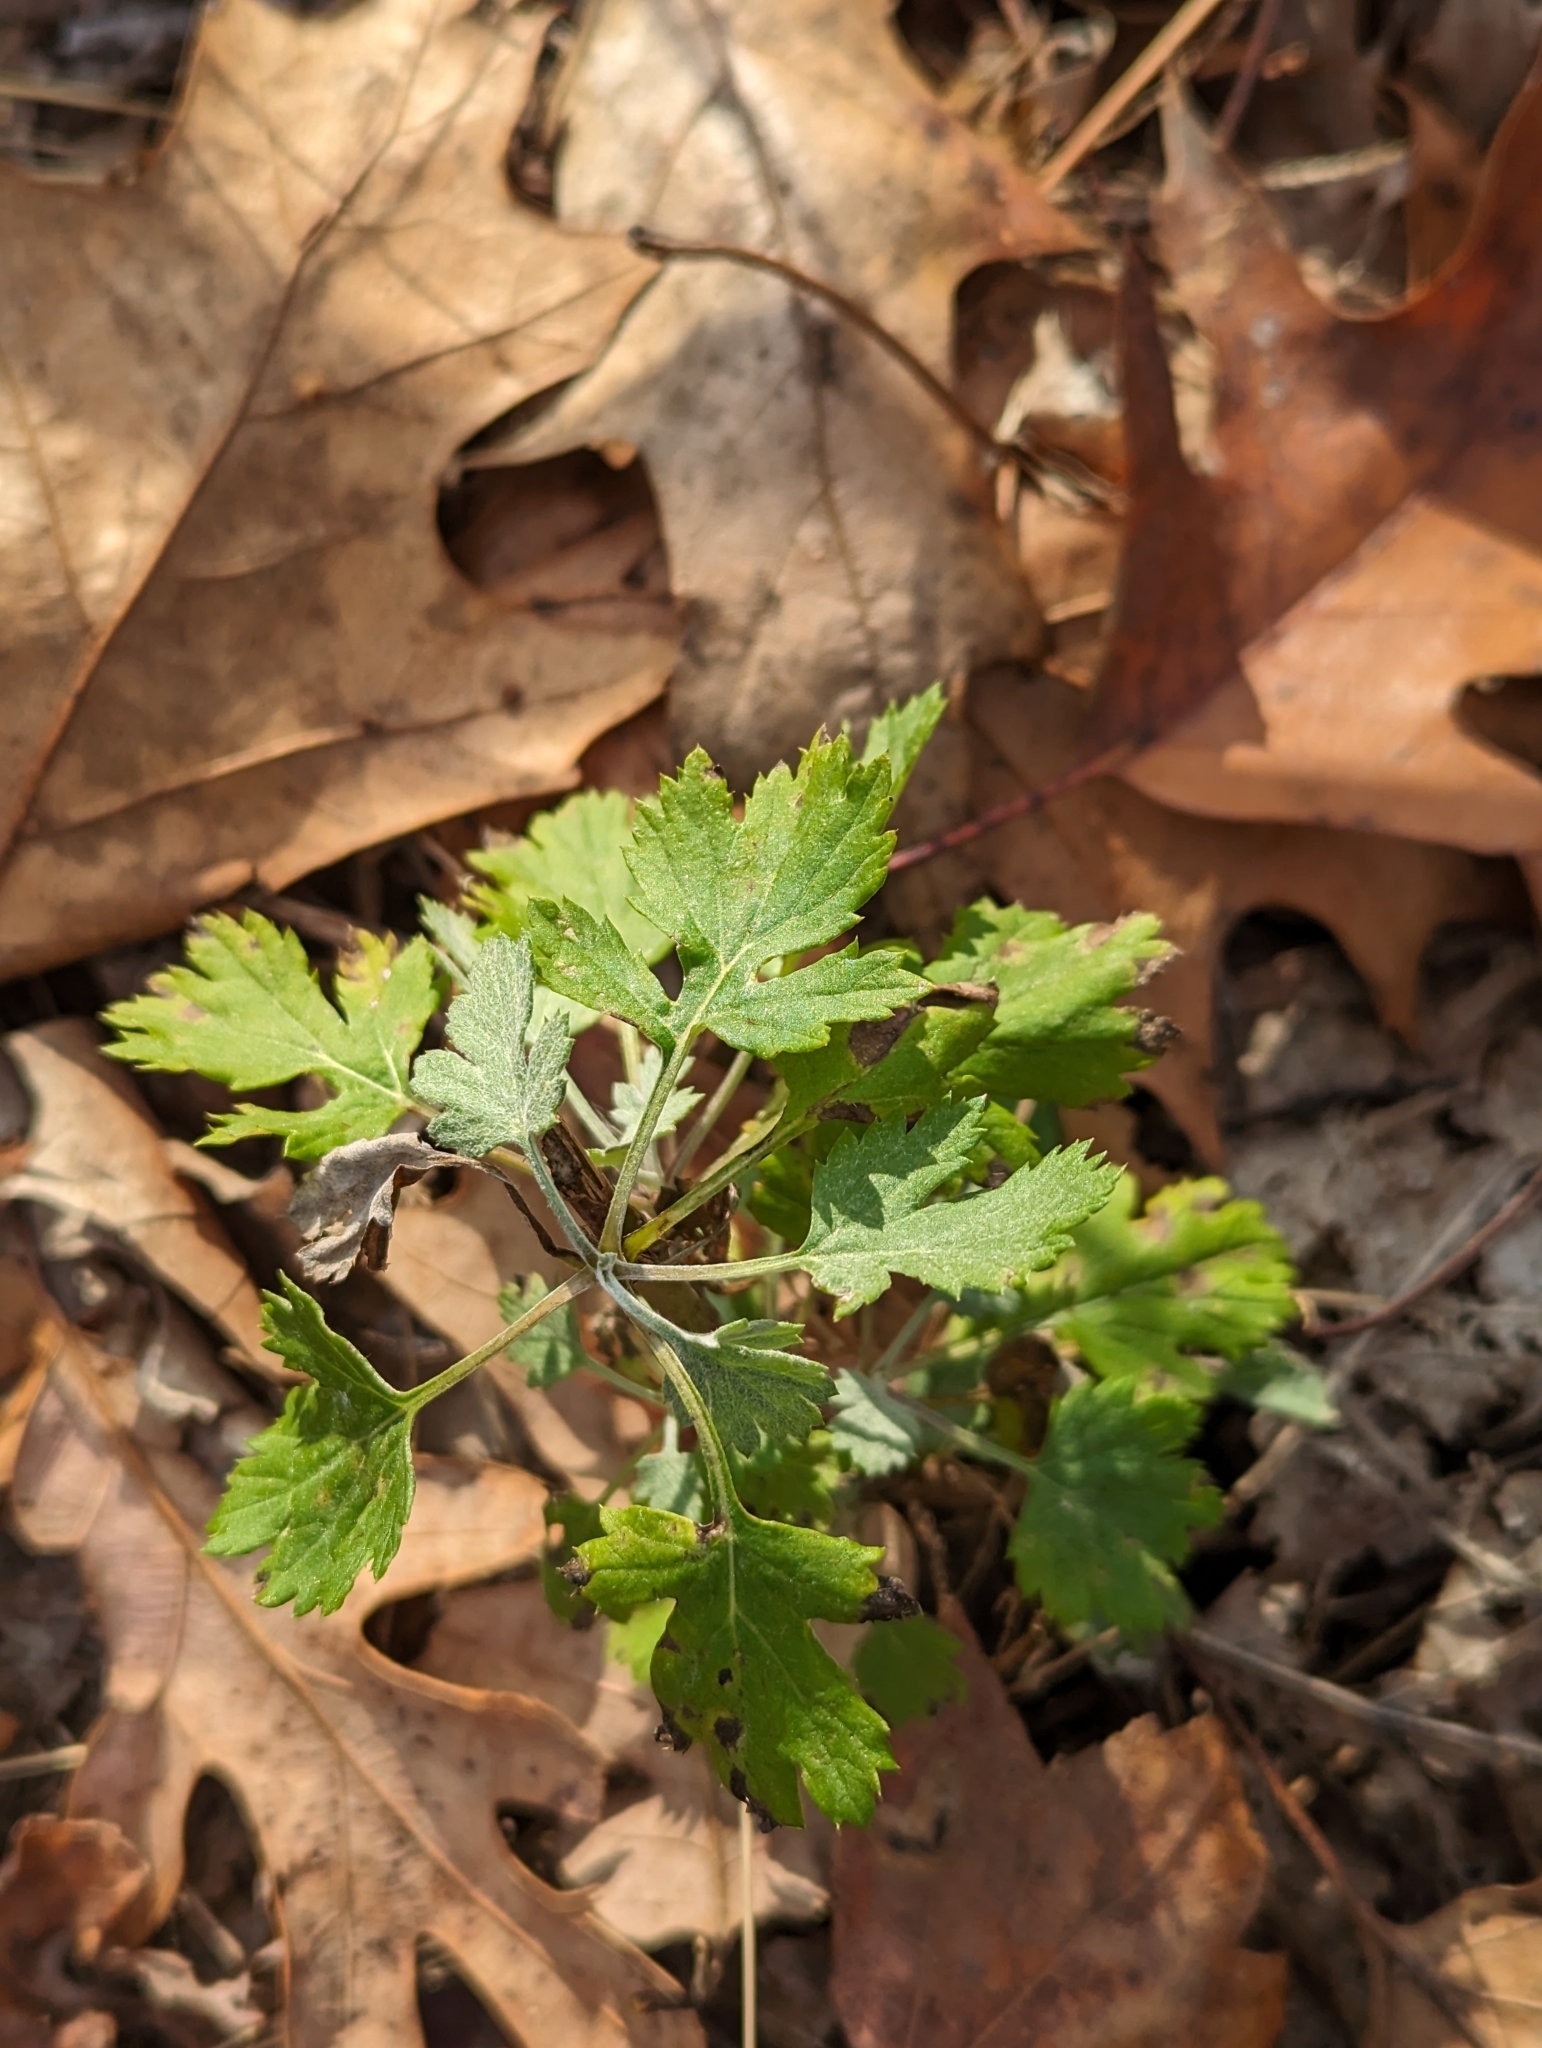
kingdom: Plantae
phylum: Tracheophyta
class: Magnoliopsida
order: Asterales
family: Asteraceae
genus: Artemisia
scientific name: Artemisia vulgaris
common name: Mugwort
